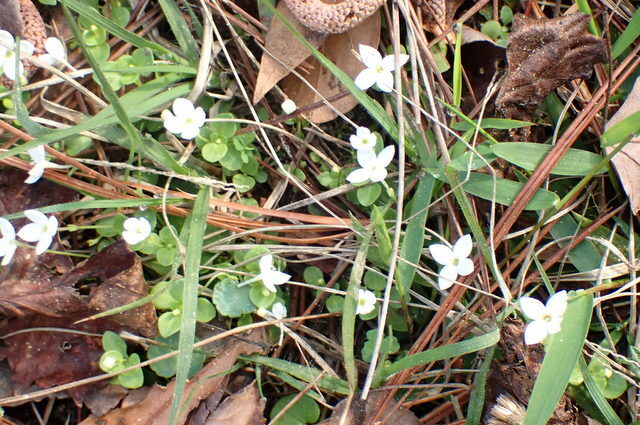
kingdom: Plantae
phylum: Tracheophyta
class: Magnoliopsida
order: Gentianales
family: Rubiaceae
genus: Houstonia
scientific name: Houstonia procumbens
